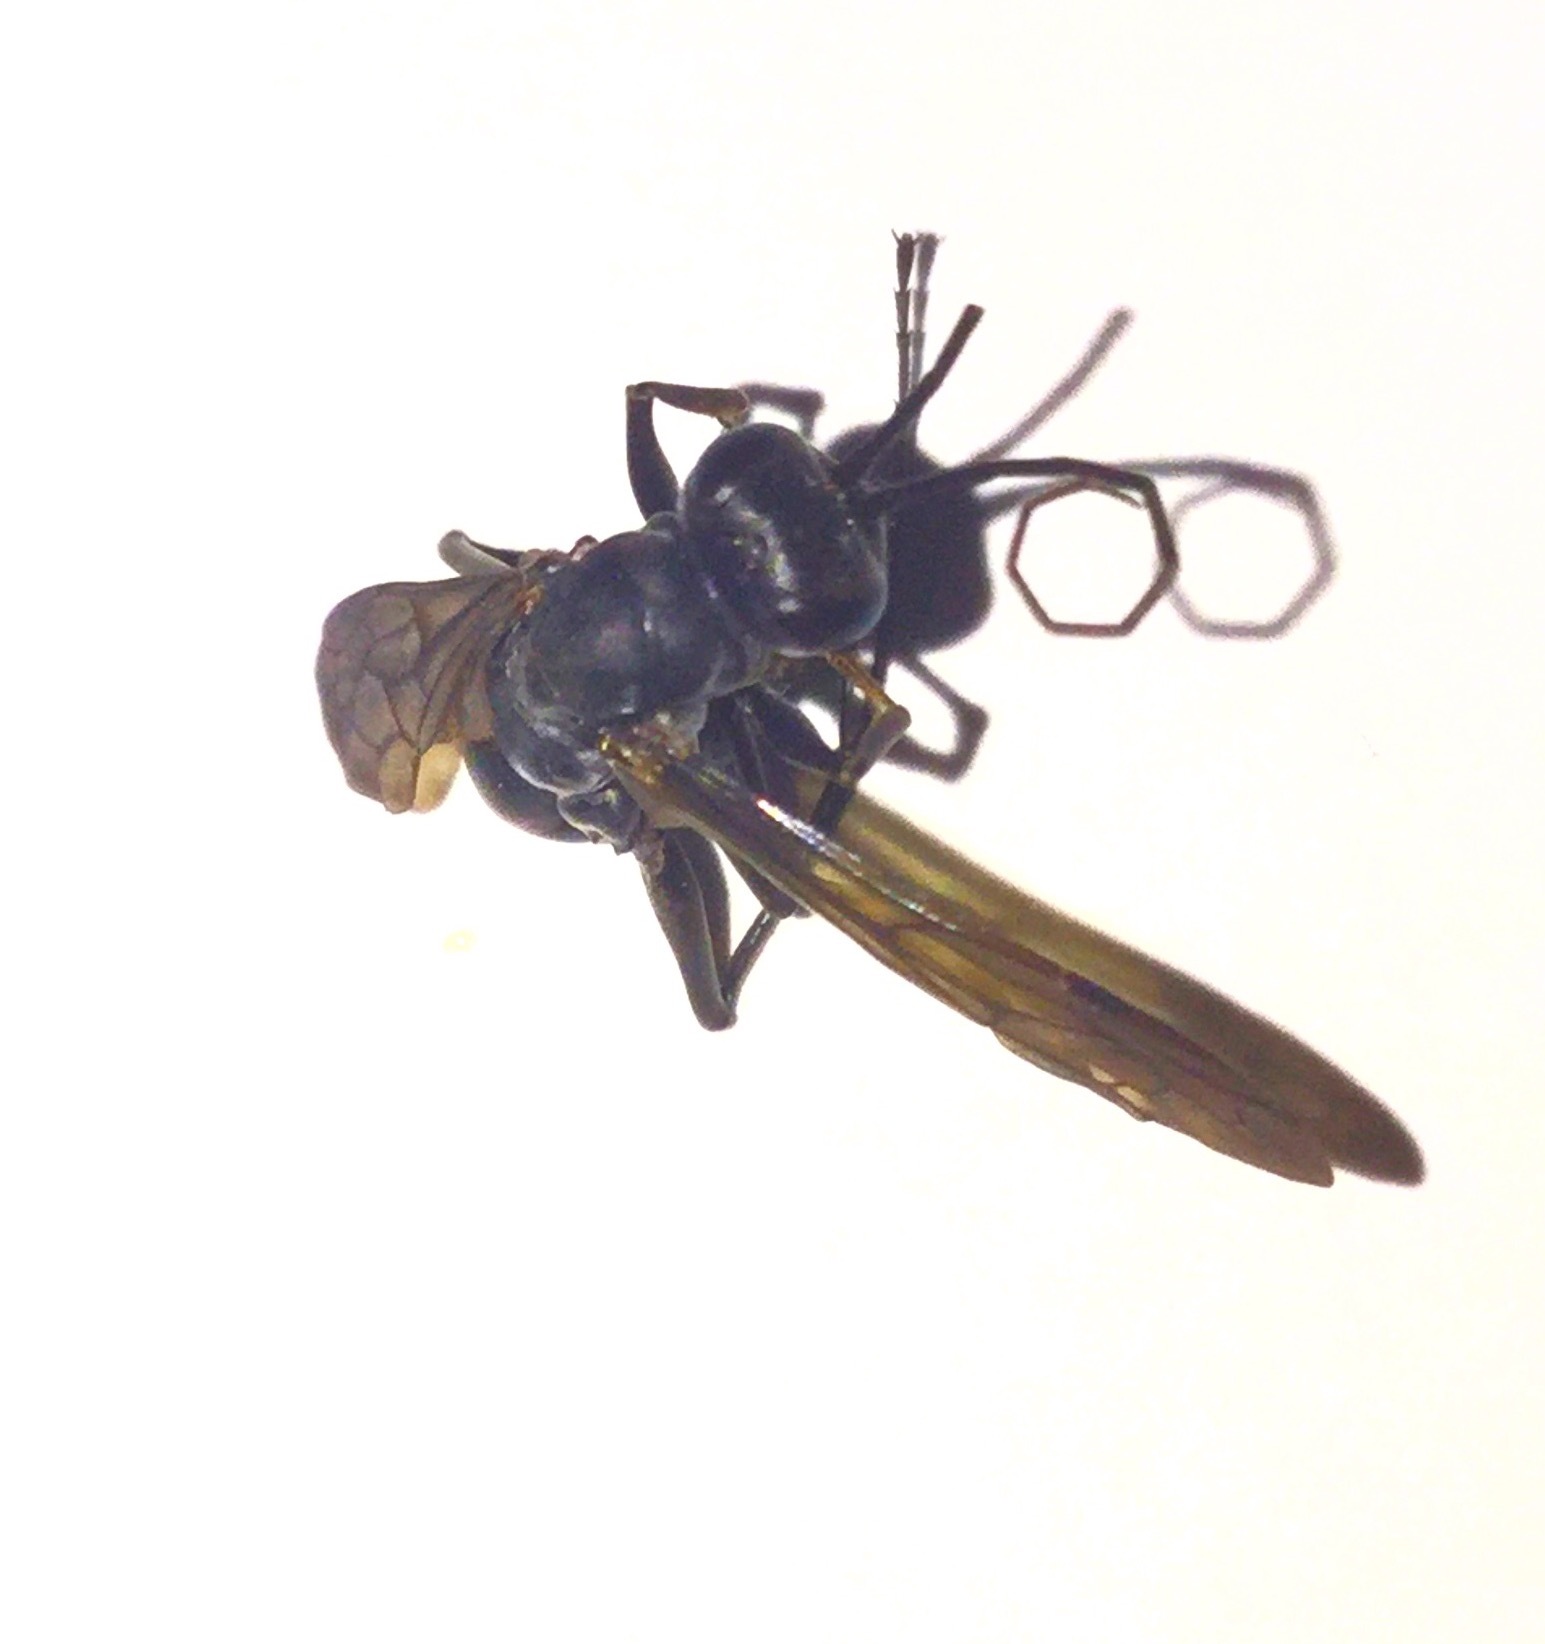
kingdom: Animalia
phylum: Arthropoda
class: Insecta
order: Hymenoptera
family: Pompilidae
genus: Priocnemis
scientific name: Priocnemis
